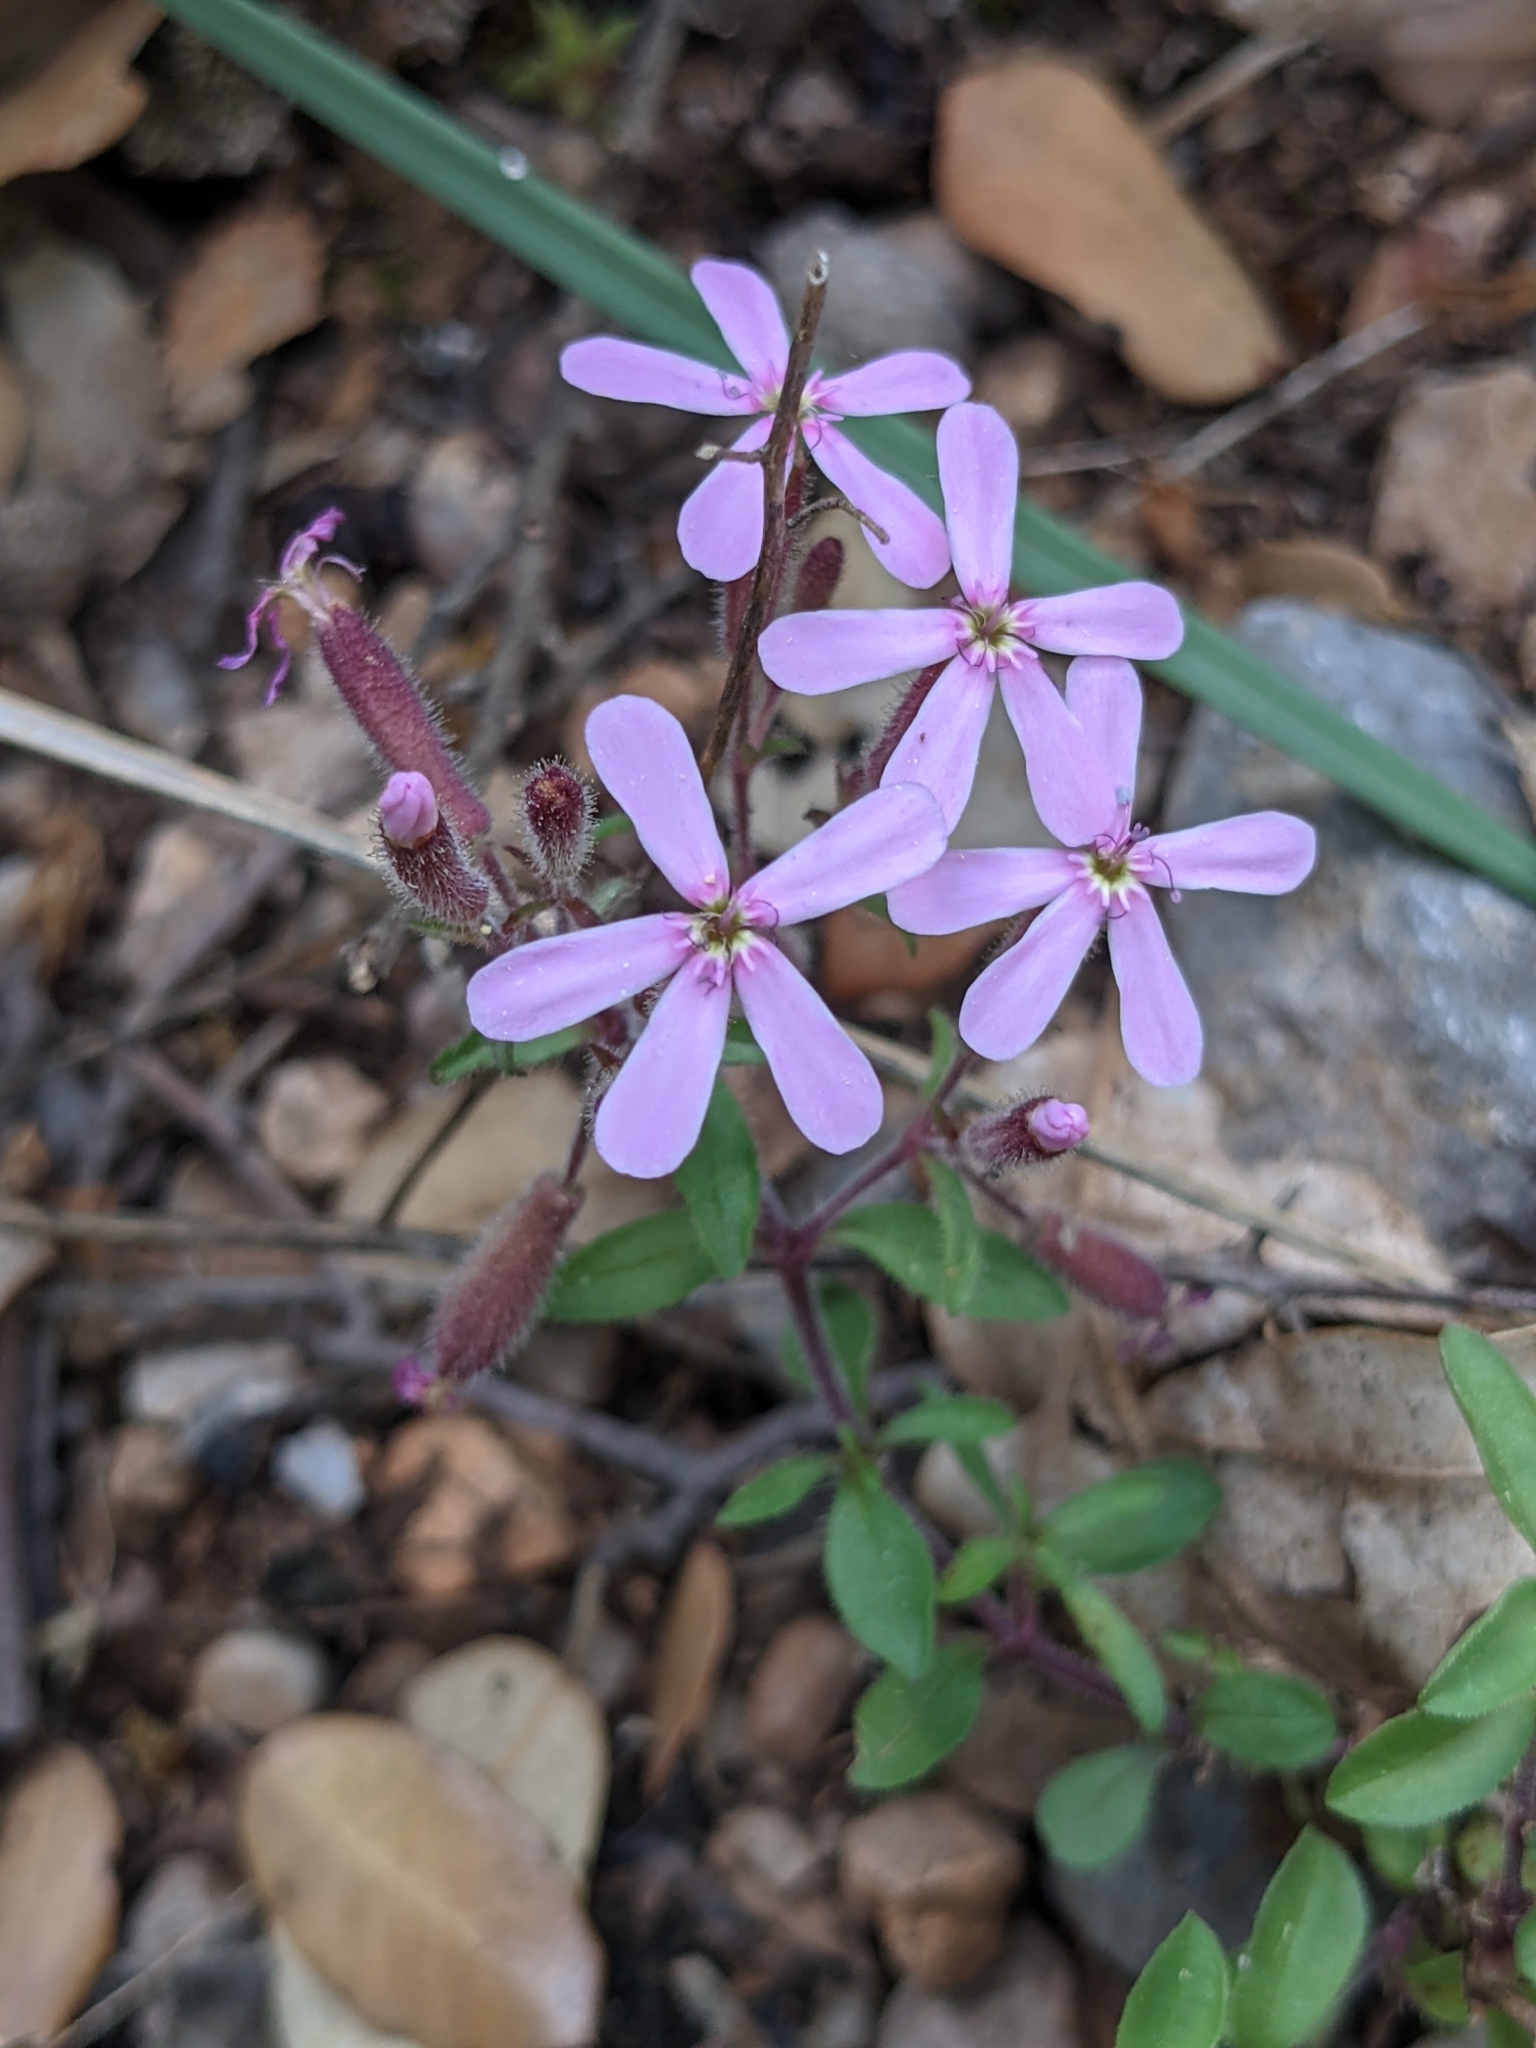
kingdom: Plantae
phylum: Tracheophyta
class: Magnoliopsida
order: Caryophyllales
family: Caryophyllaceae
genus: Saponaria
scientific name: Saponaria ocymoides
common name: Rock soapwort
